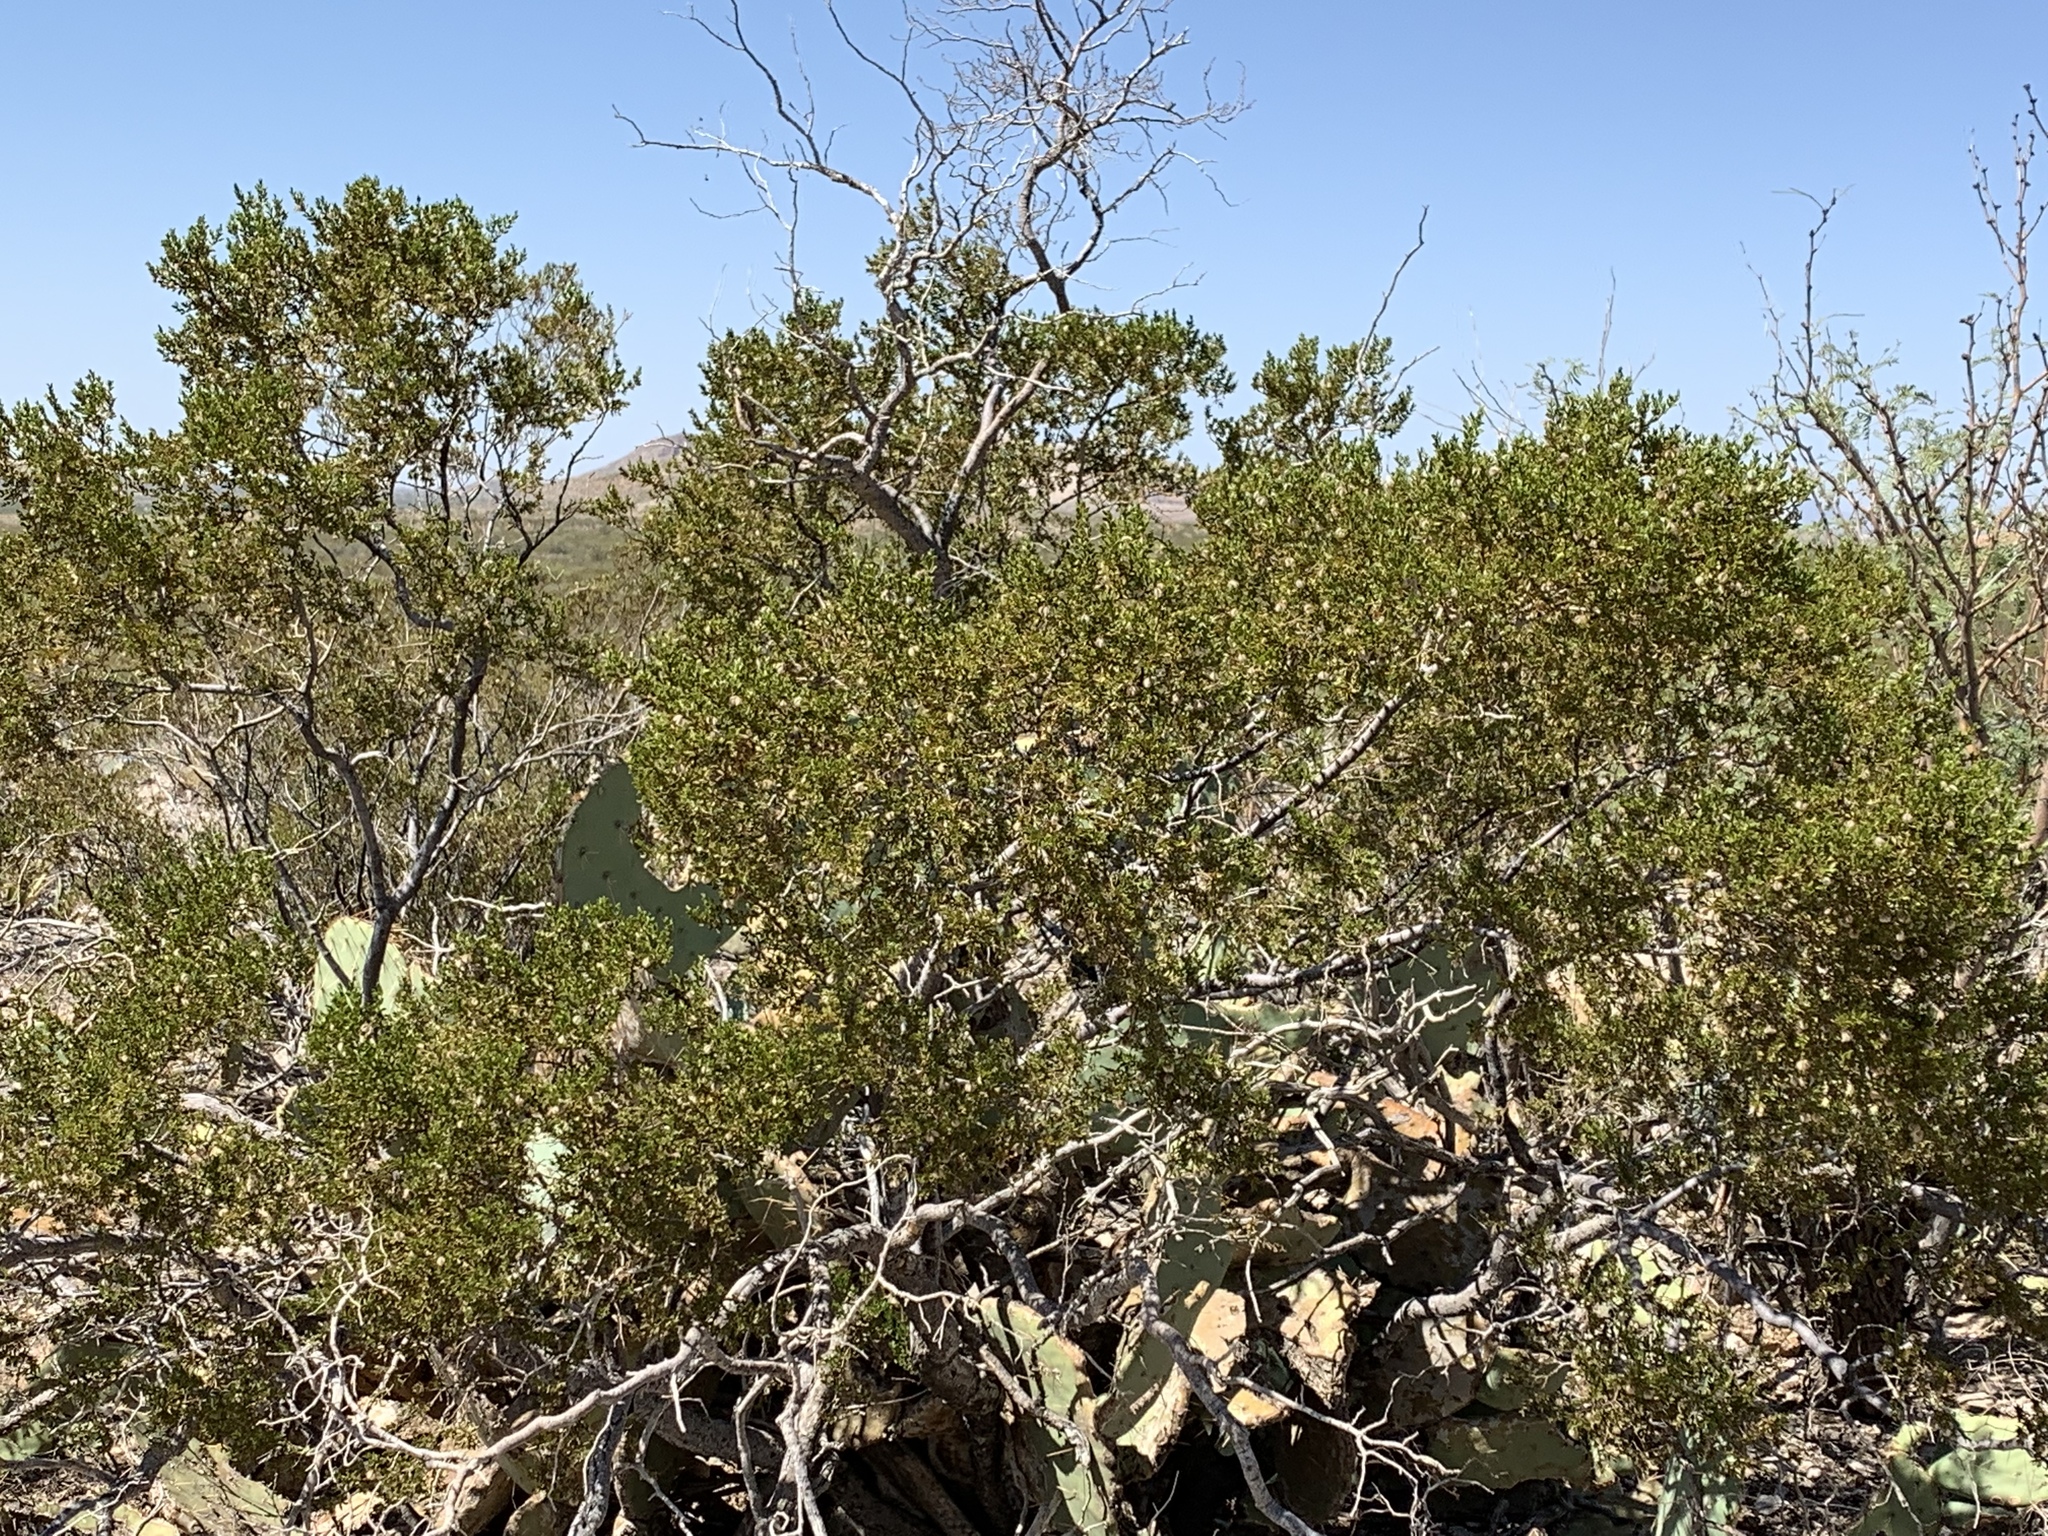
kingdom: Plantae
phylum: Tracheophyta
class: Magnoliopsida
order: Zygophyllales
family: Zygophyllaceae
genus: Larrea
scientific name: Larrea tridentata
